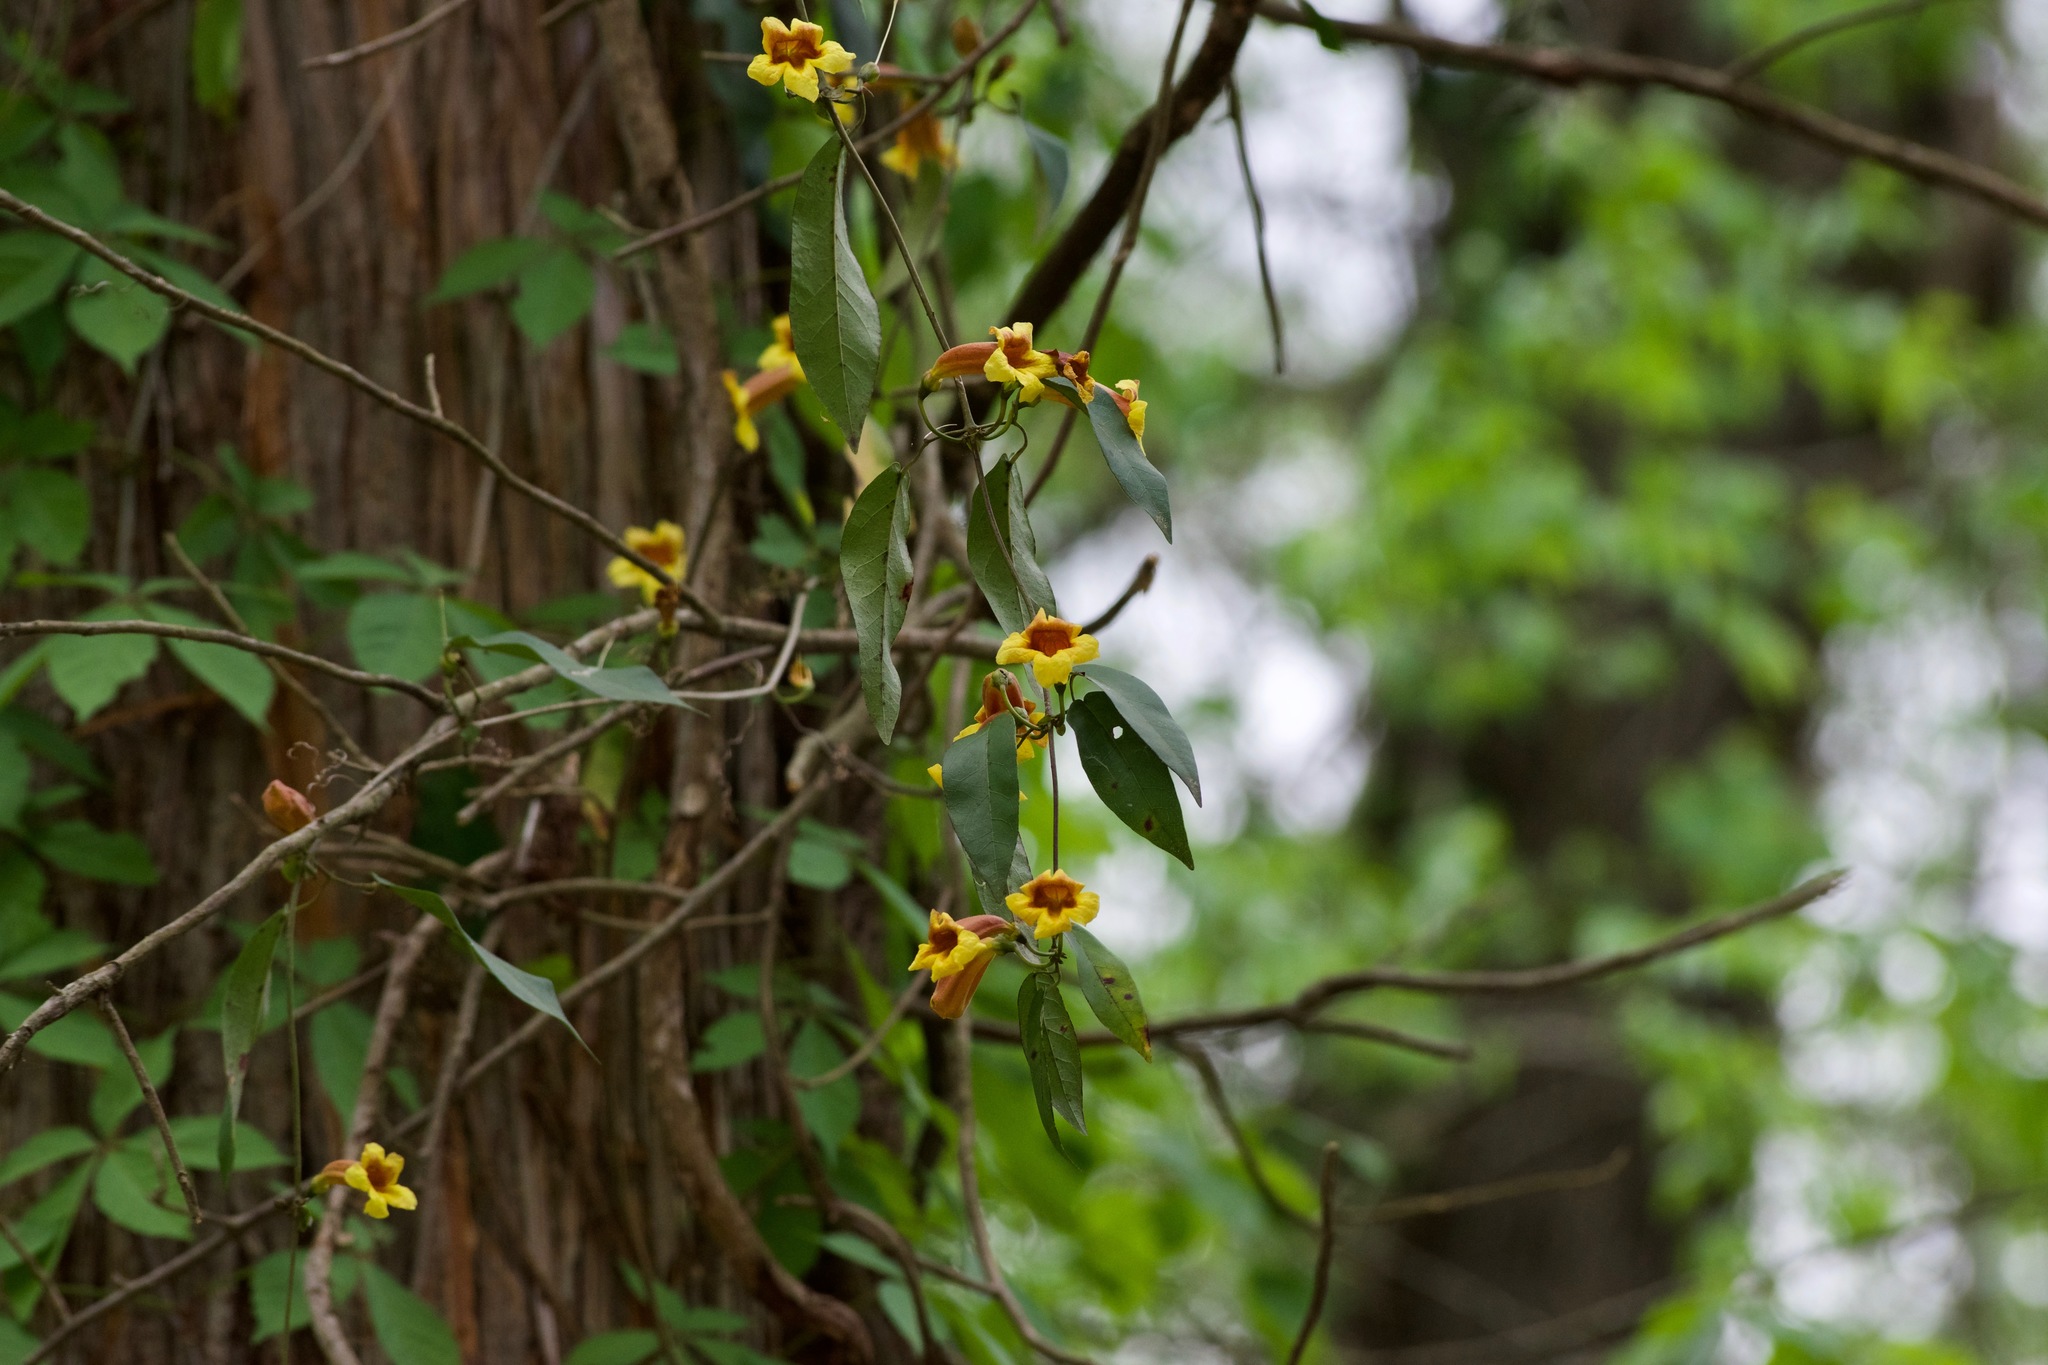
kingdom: Plantae
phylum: Tracheophyta
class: Magnoliopsida
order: Lamiales
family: Bignoniaceae
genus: Bignonia
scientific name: Bignonia capreolata
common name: Crossvine
